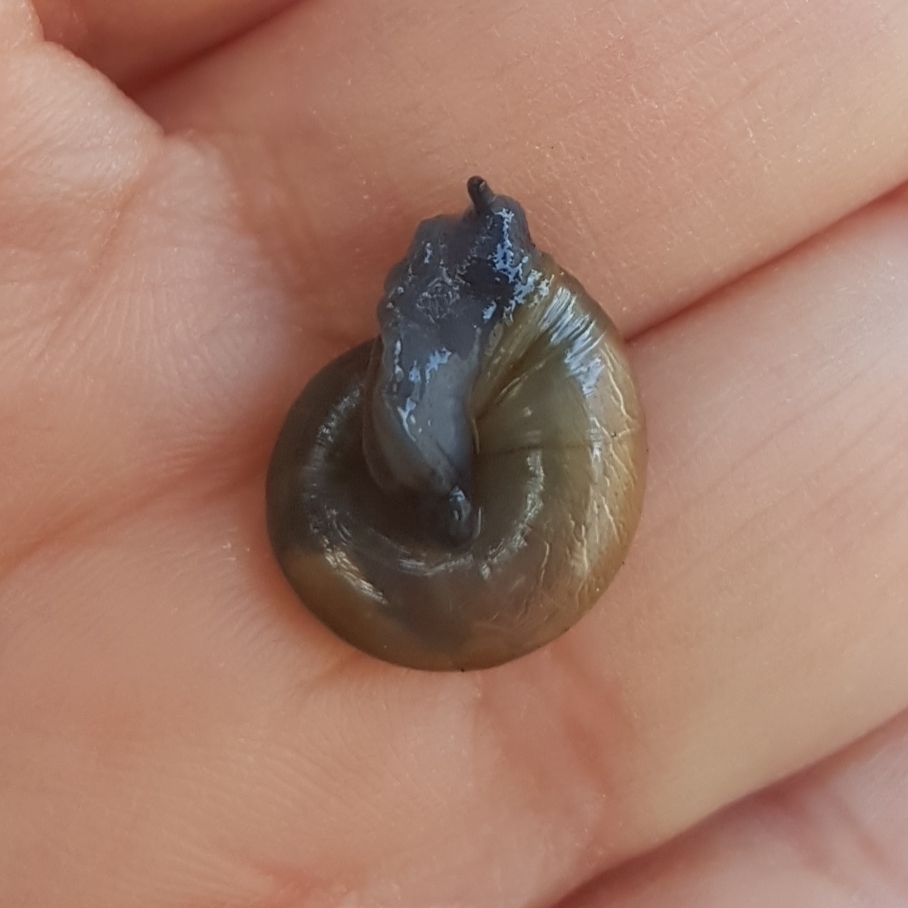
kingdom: Animalia
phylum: Mollusca
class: Gastropoda
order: Stylommatophora
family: Oxychilidae
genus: Oxychilus
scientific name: Oxychilus draparnaudi
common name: Draparnaud's glass snail
